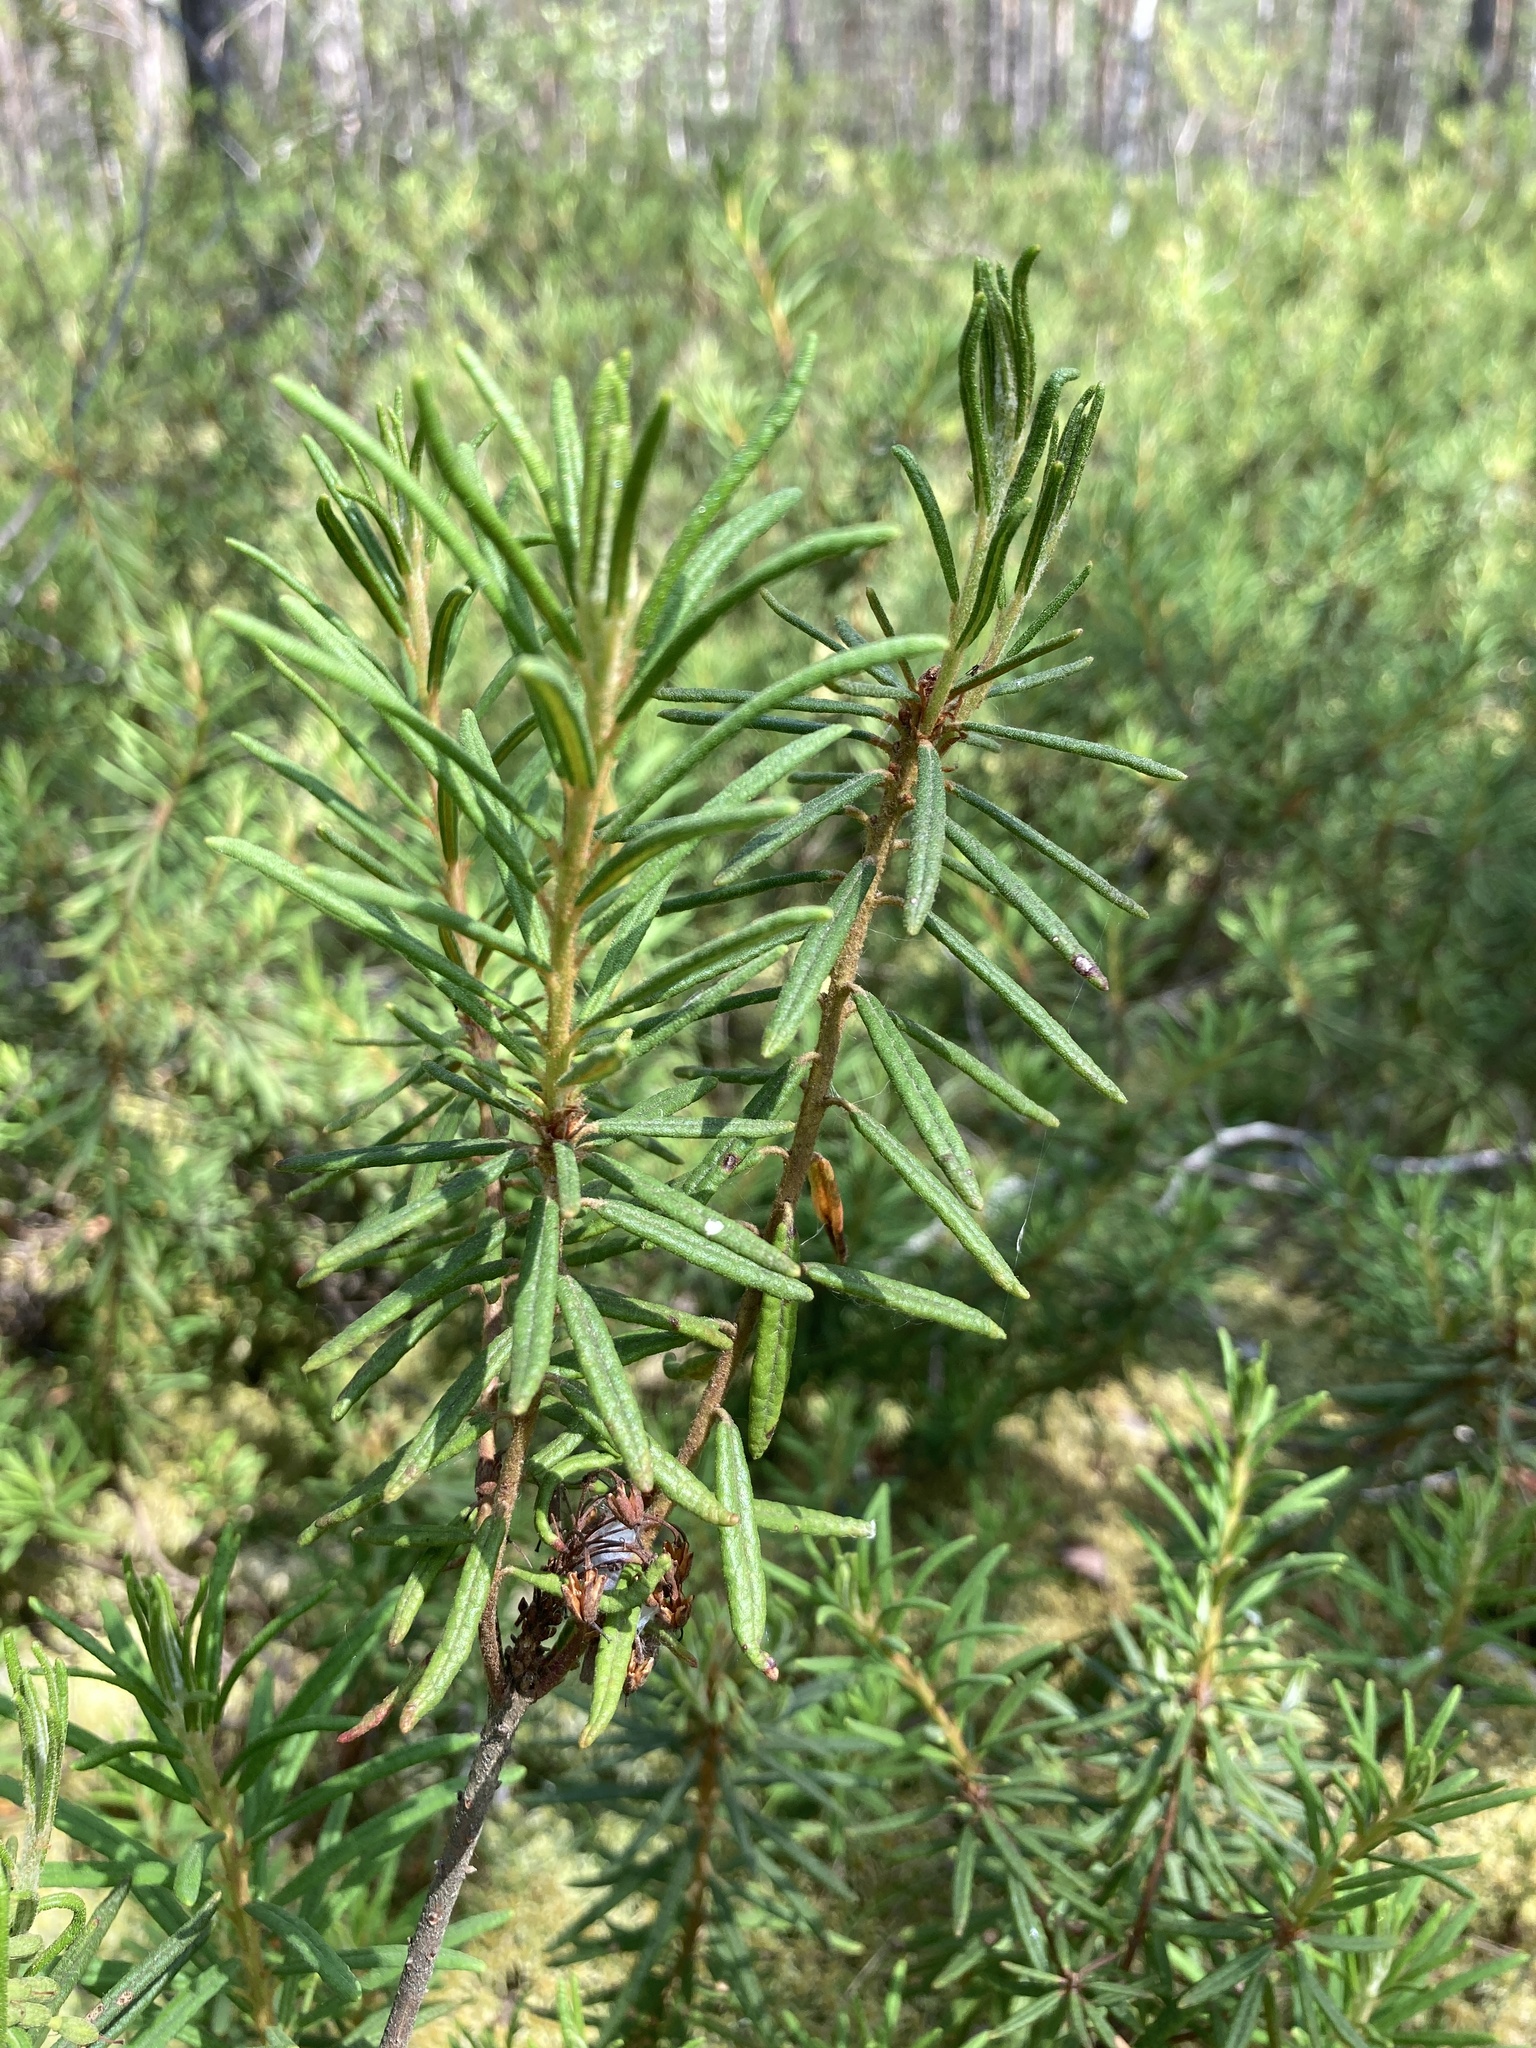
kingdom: Plantae
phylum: Tracheophyta
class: Magnoliopsida
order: Ericales
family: Ericaceae
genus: Rhododendron
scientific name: Rhododendron tomentosum
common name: Marsh labrador tea
